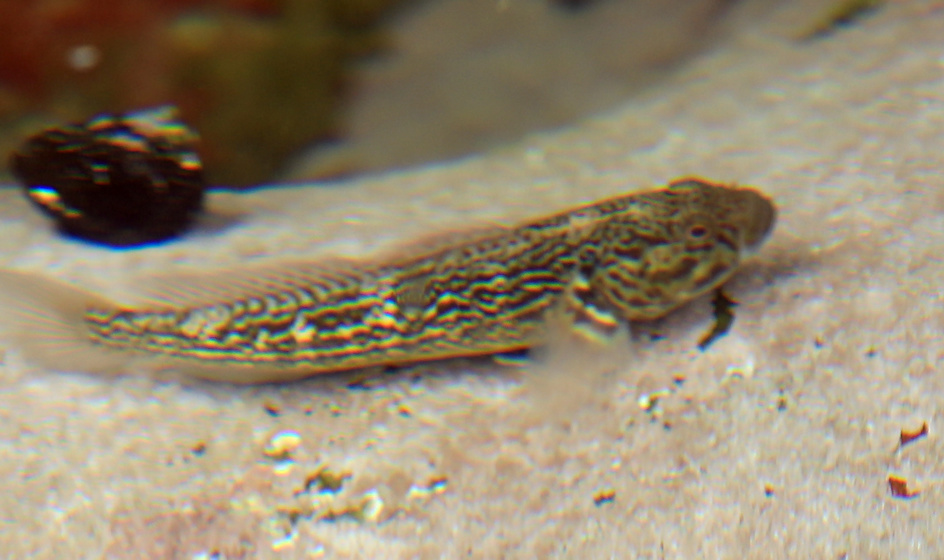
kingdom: Animalia
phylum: Chordata
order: Perciformes
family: Gobiidae
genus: Caffrogobius
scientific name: Caffrogobius caffer
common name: Banded goby
